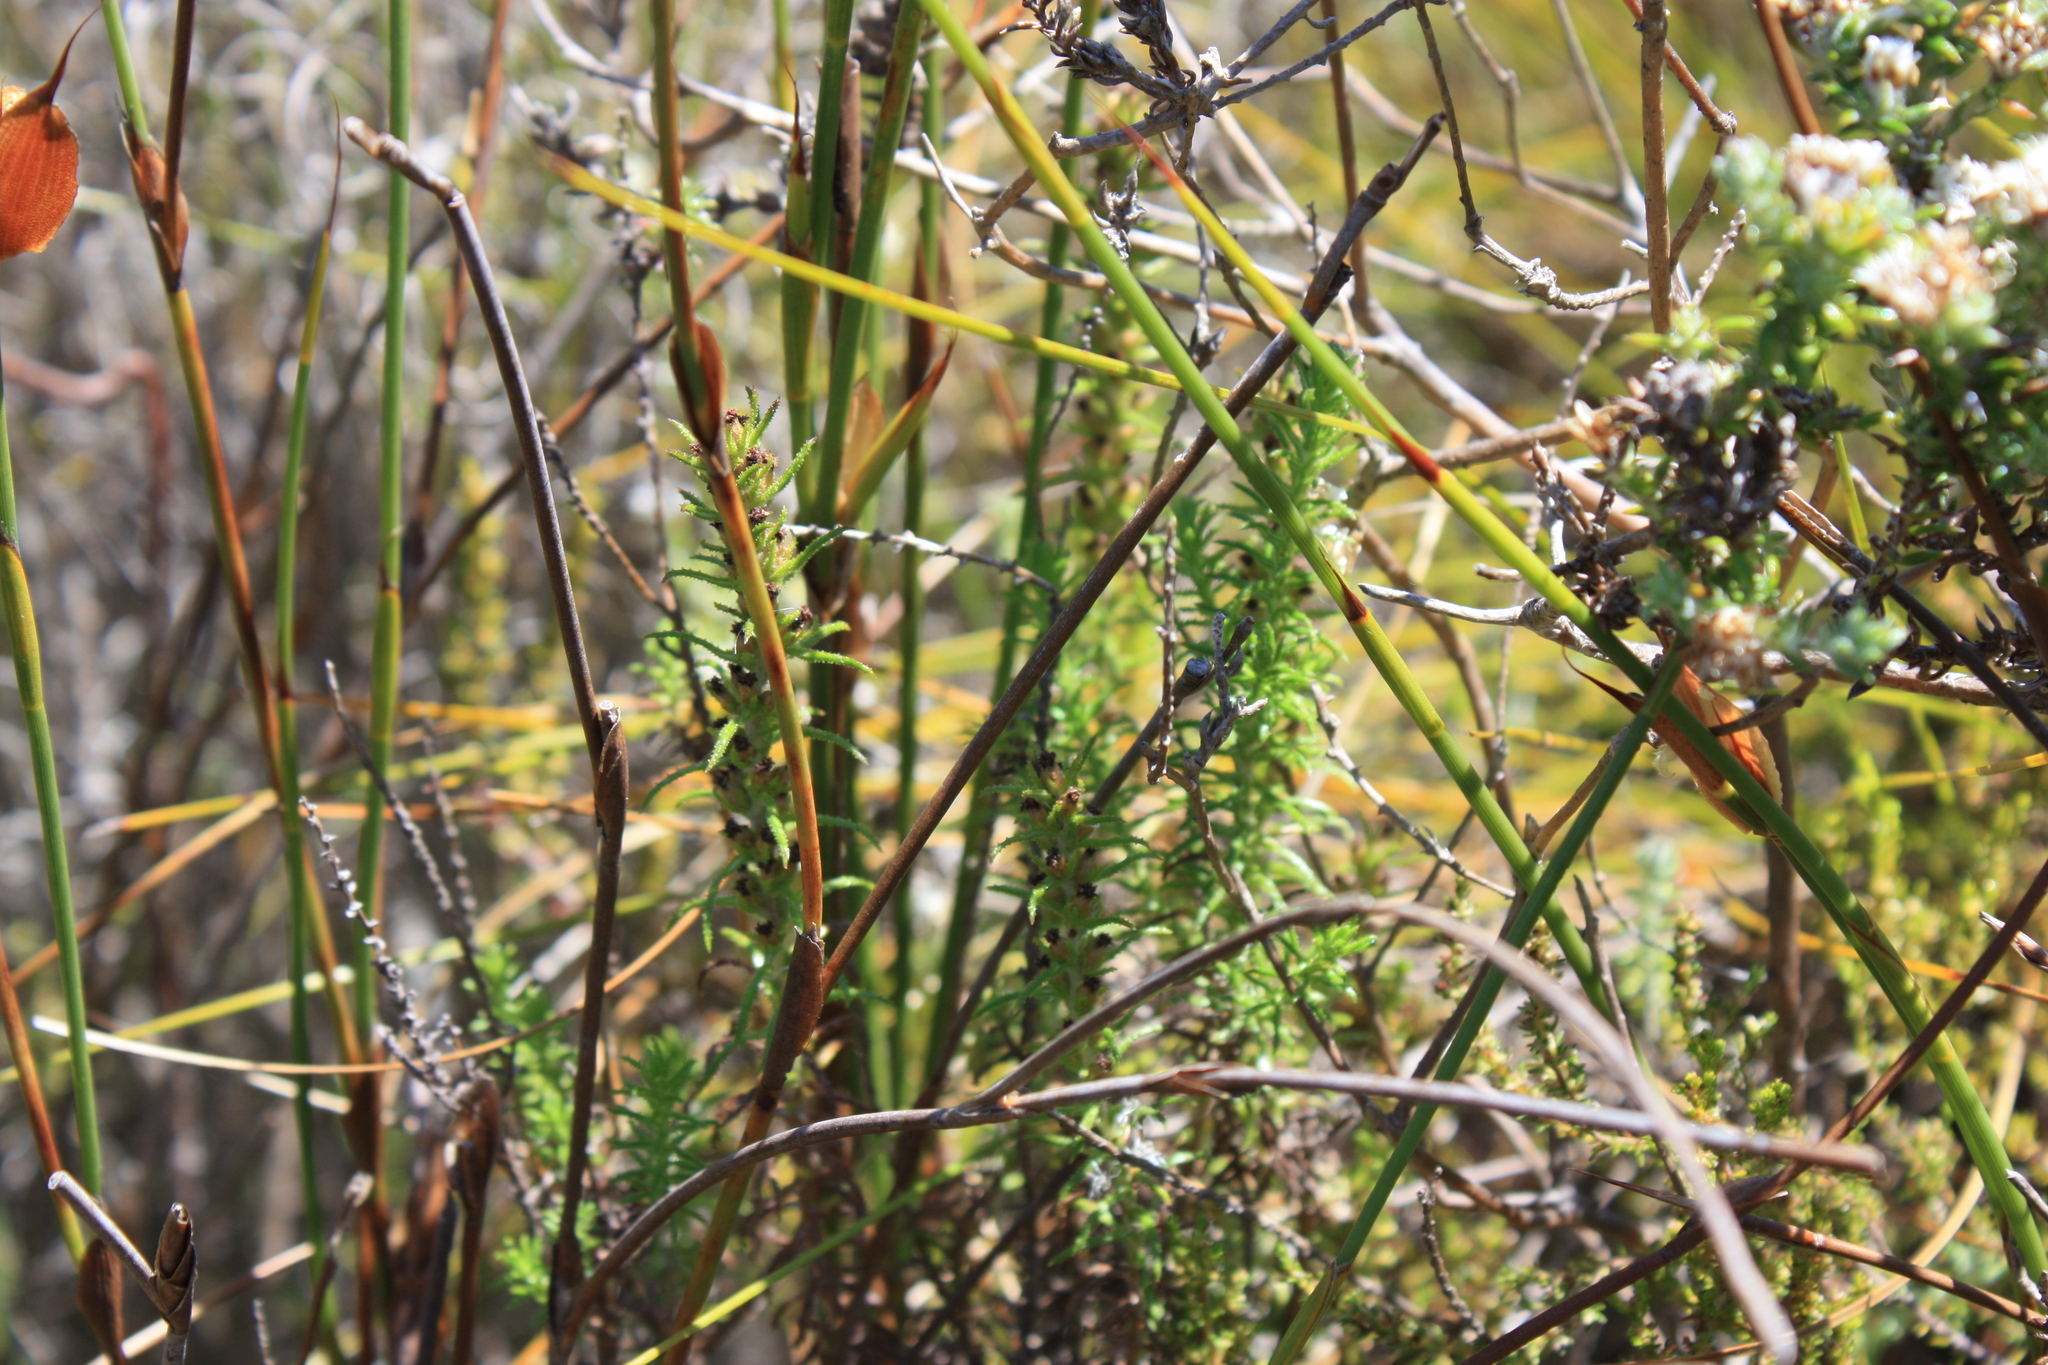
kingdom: Plantae
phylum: Tracheophyta
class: Magnoliopsida
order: Asterales
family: Asteraceae
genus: Myrovernix
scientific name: Myrovernix longifolius
